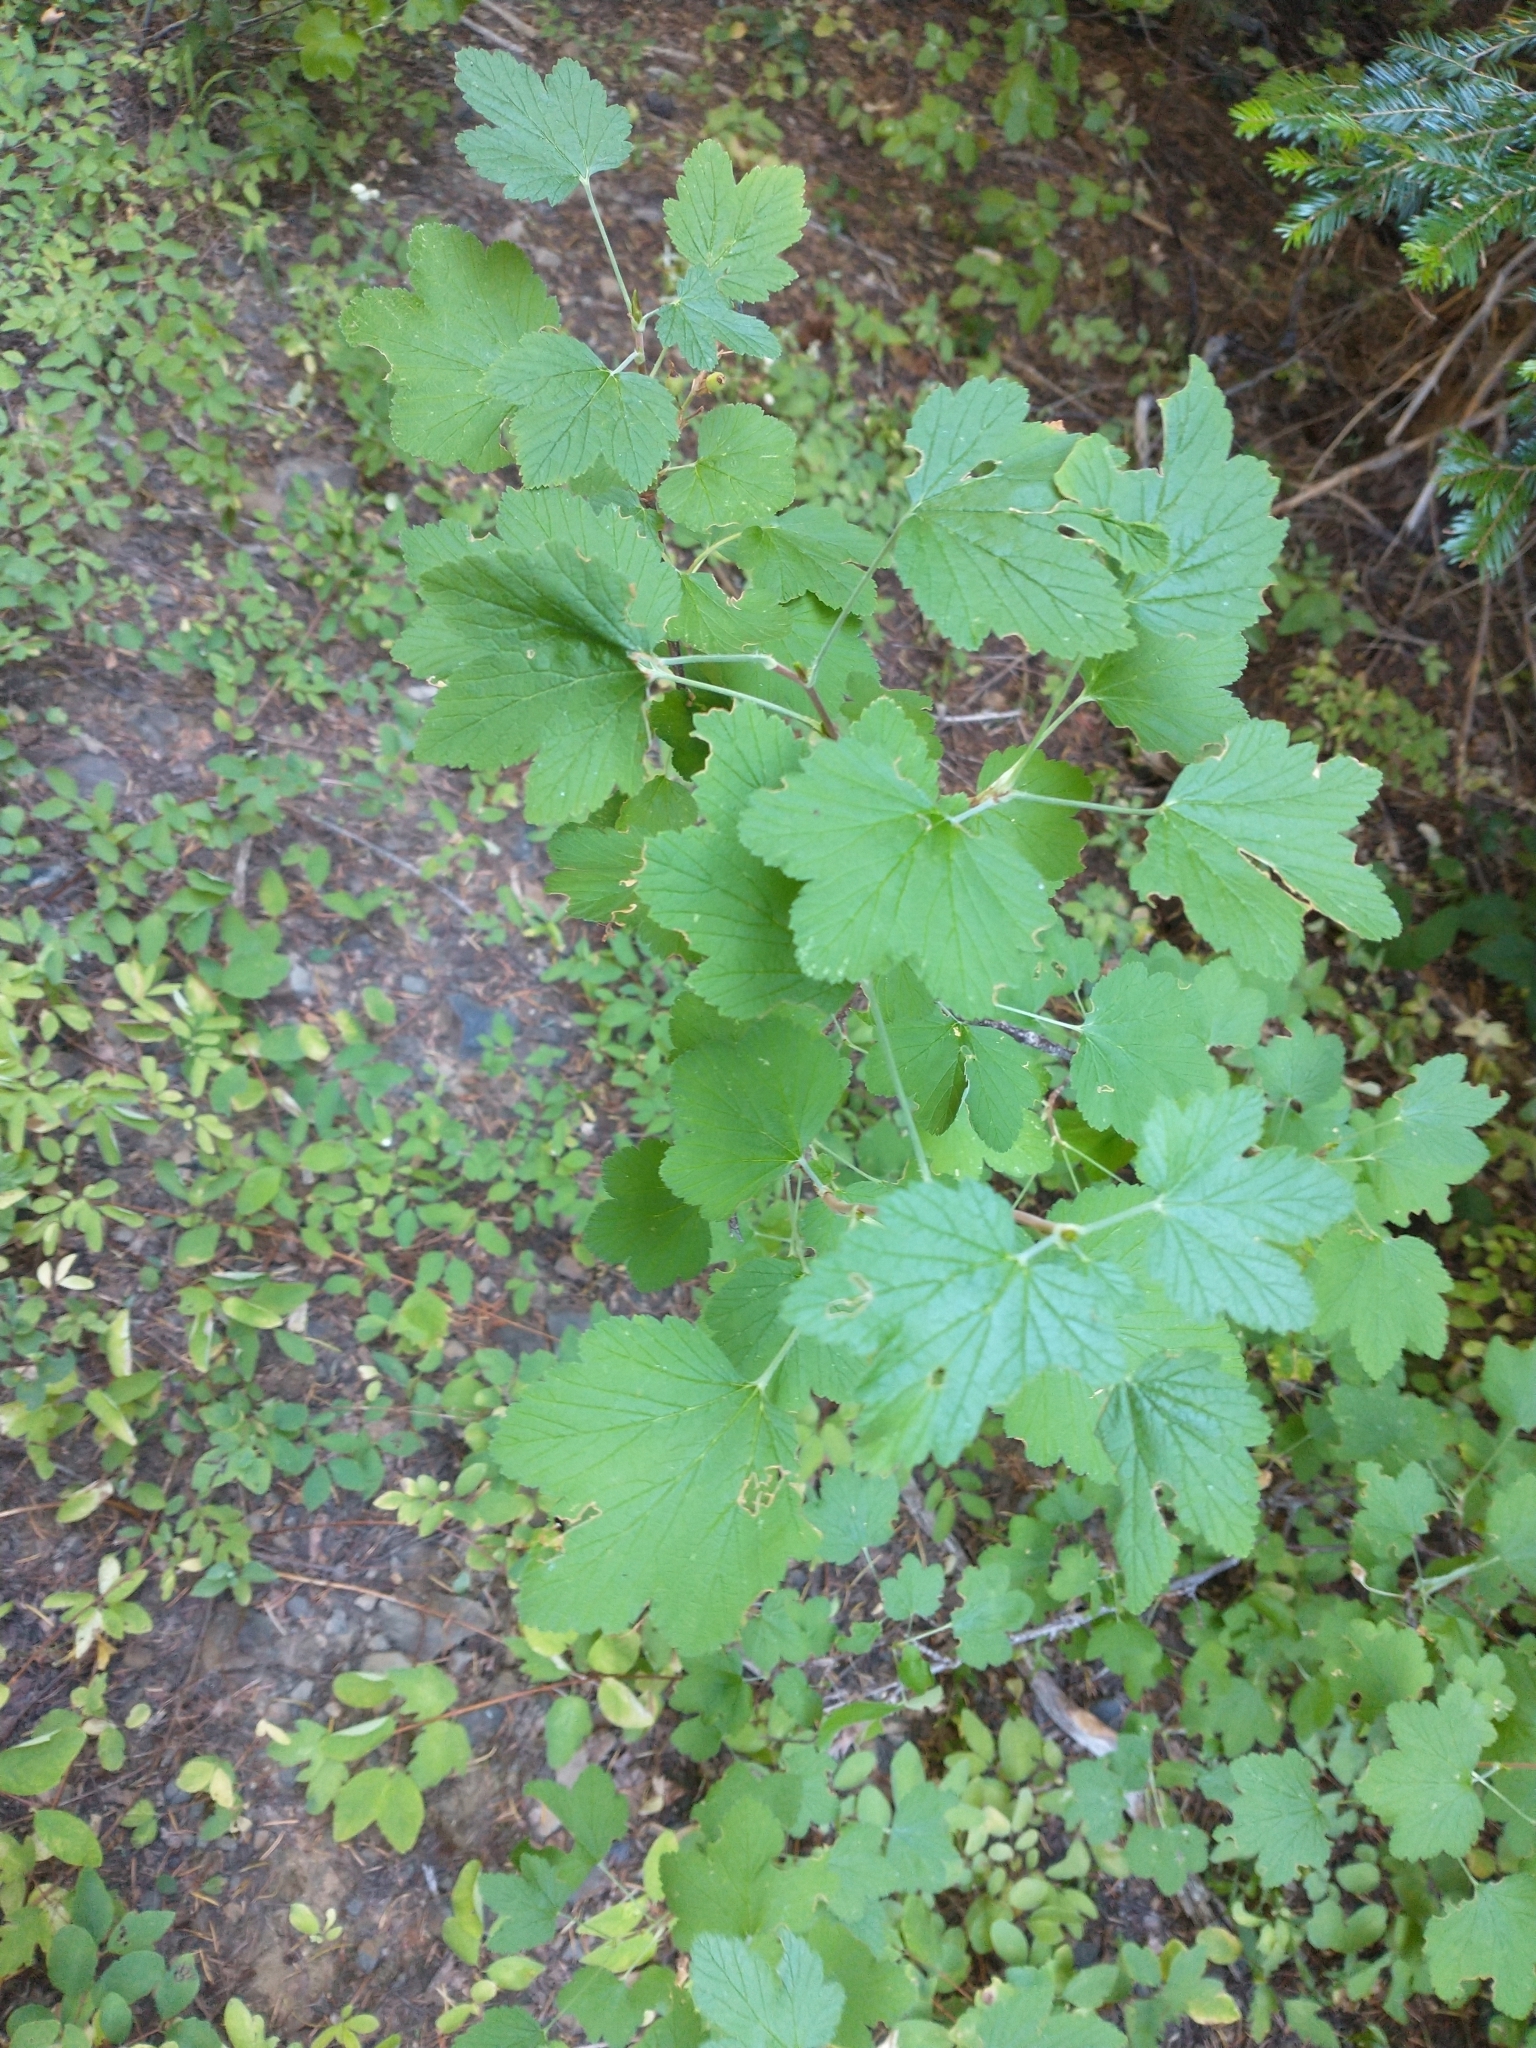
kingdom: Plantae
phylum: Tracheophyta
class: Magnoliopsida
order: Dipsacales
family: Caprifoliaceae
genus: Symphoricarpos
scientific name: Symphoricarpos mollis
